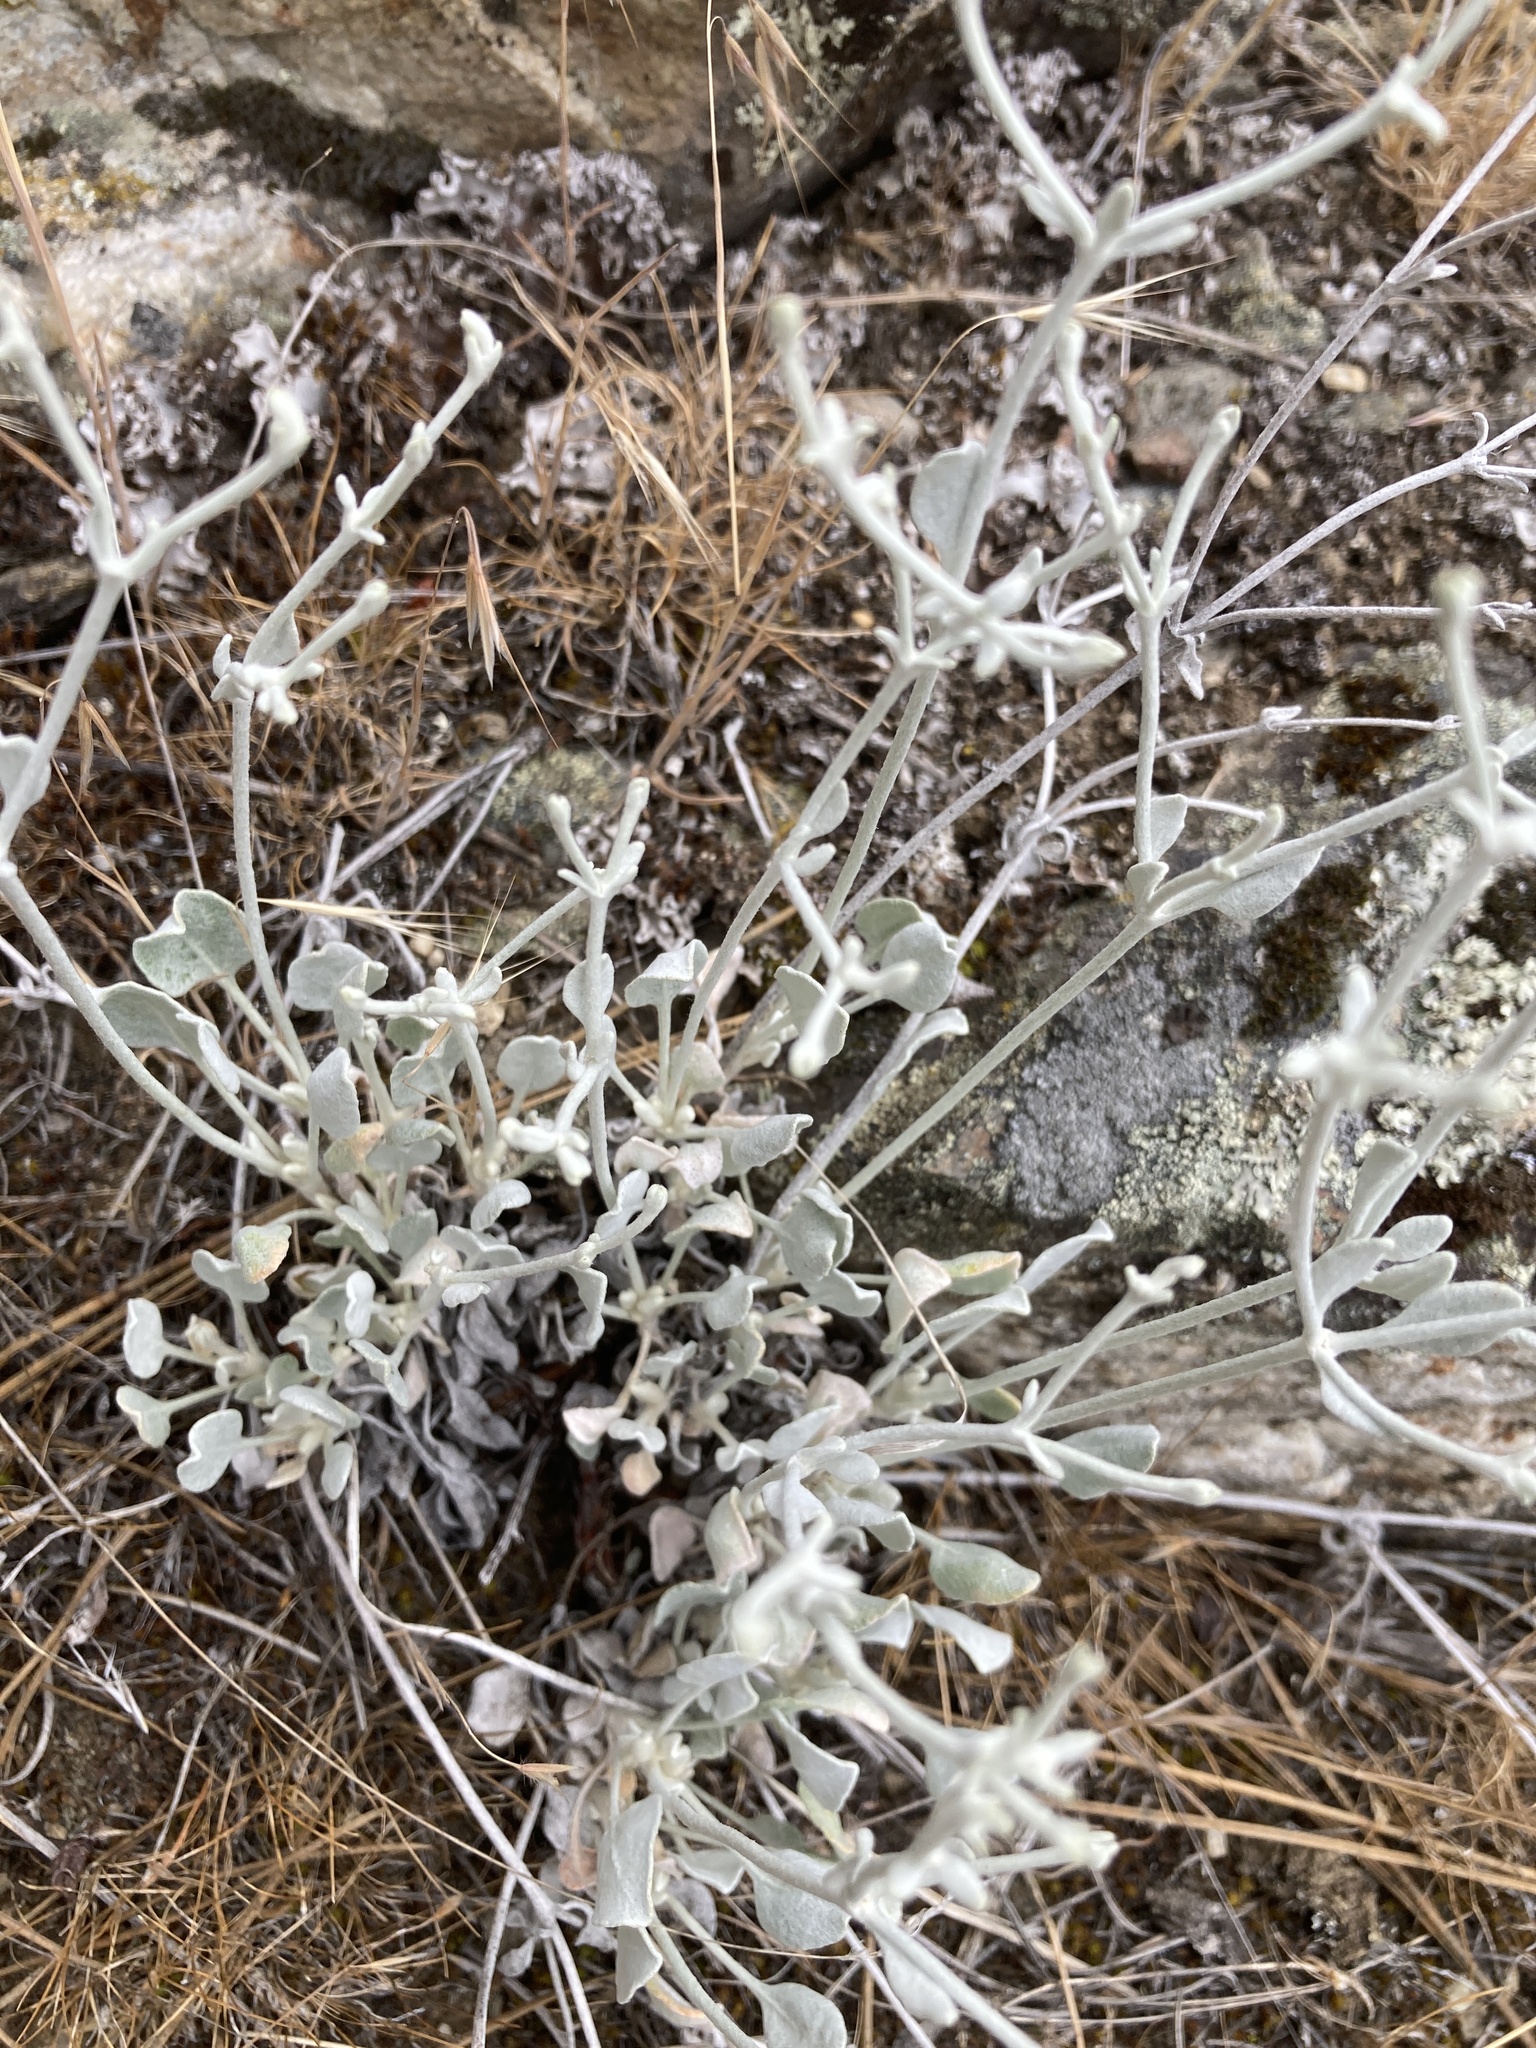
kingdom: Plantae
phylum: Tracheophyta
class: Magnoliopsida
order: Caryophyllales
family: Polygonaceae
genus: Eriogonum
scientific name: Eriogonum niveum
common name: Snow wild buckwheat
